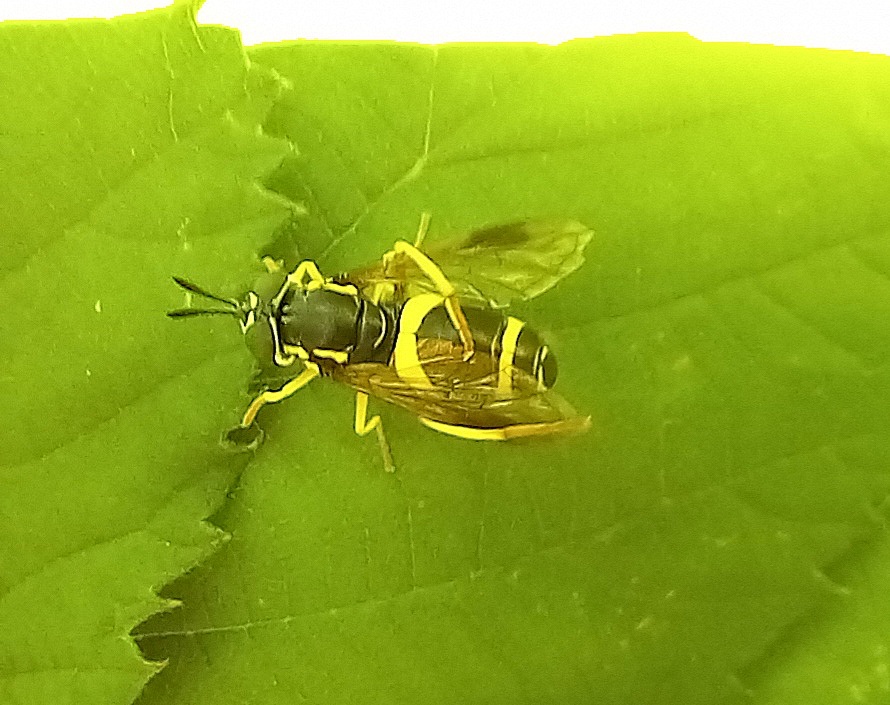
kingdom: Animalia
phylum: Arthropoda
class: Insecta
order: Diptera
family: Syrphidae
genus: Chrysotoxum
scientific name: Chrysotoxum bicincta
